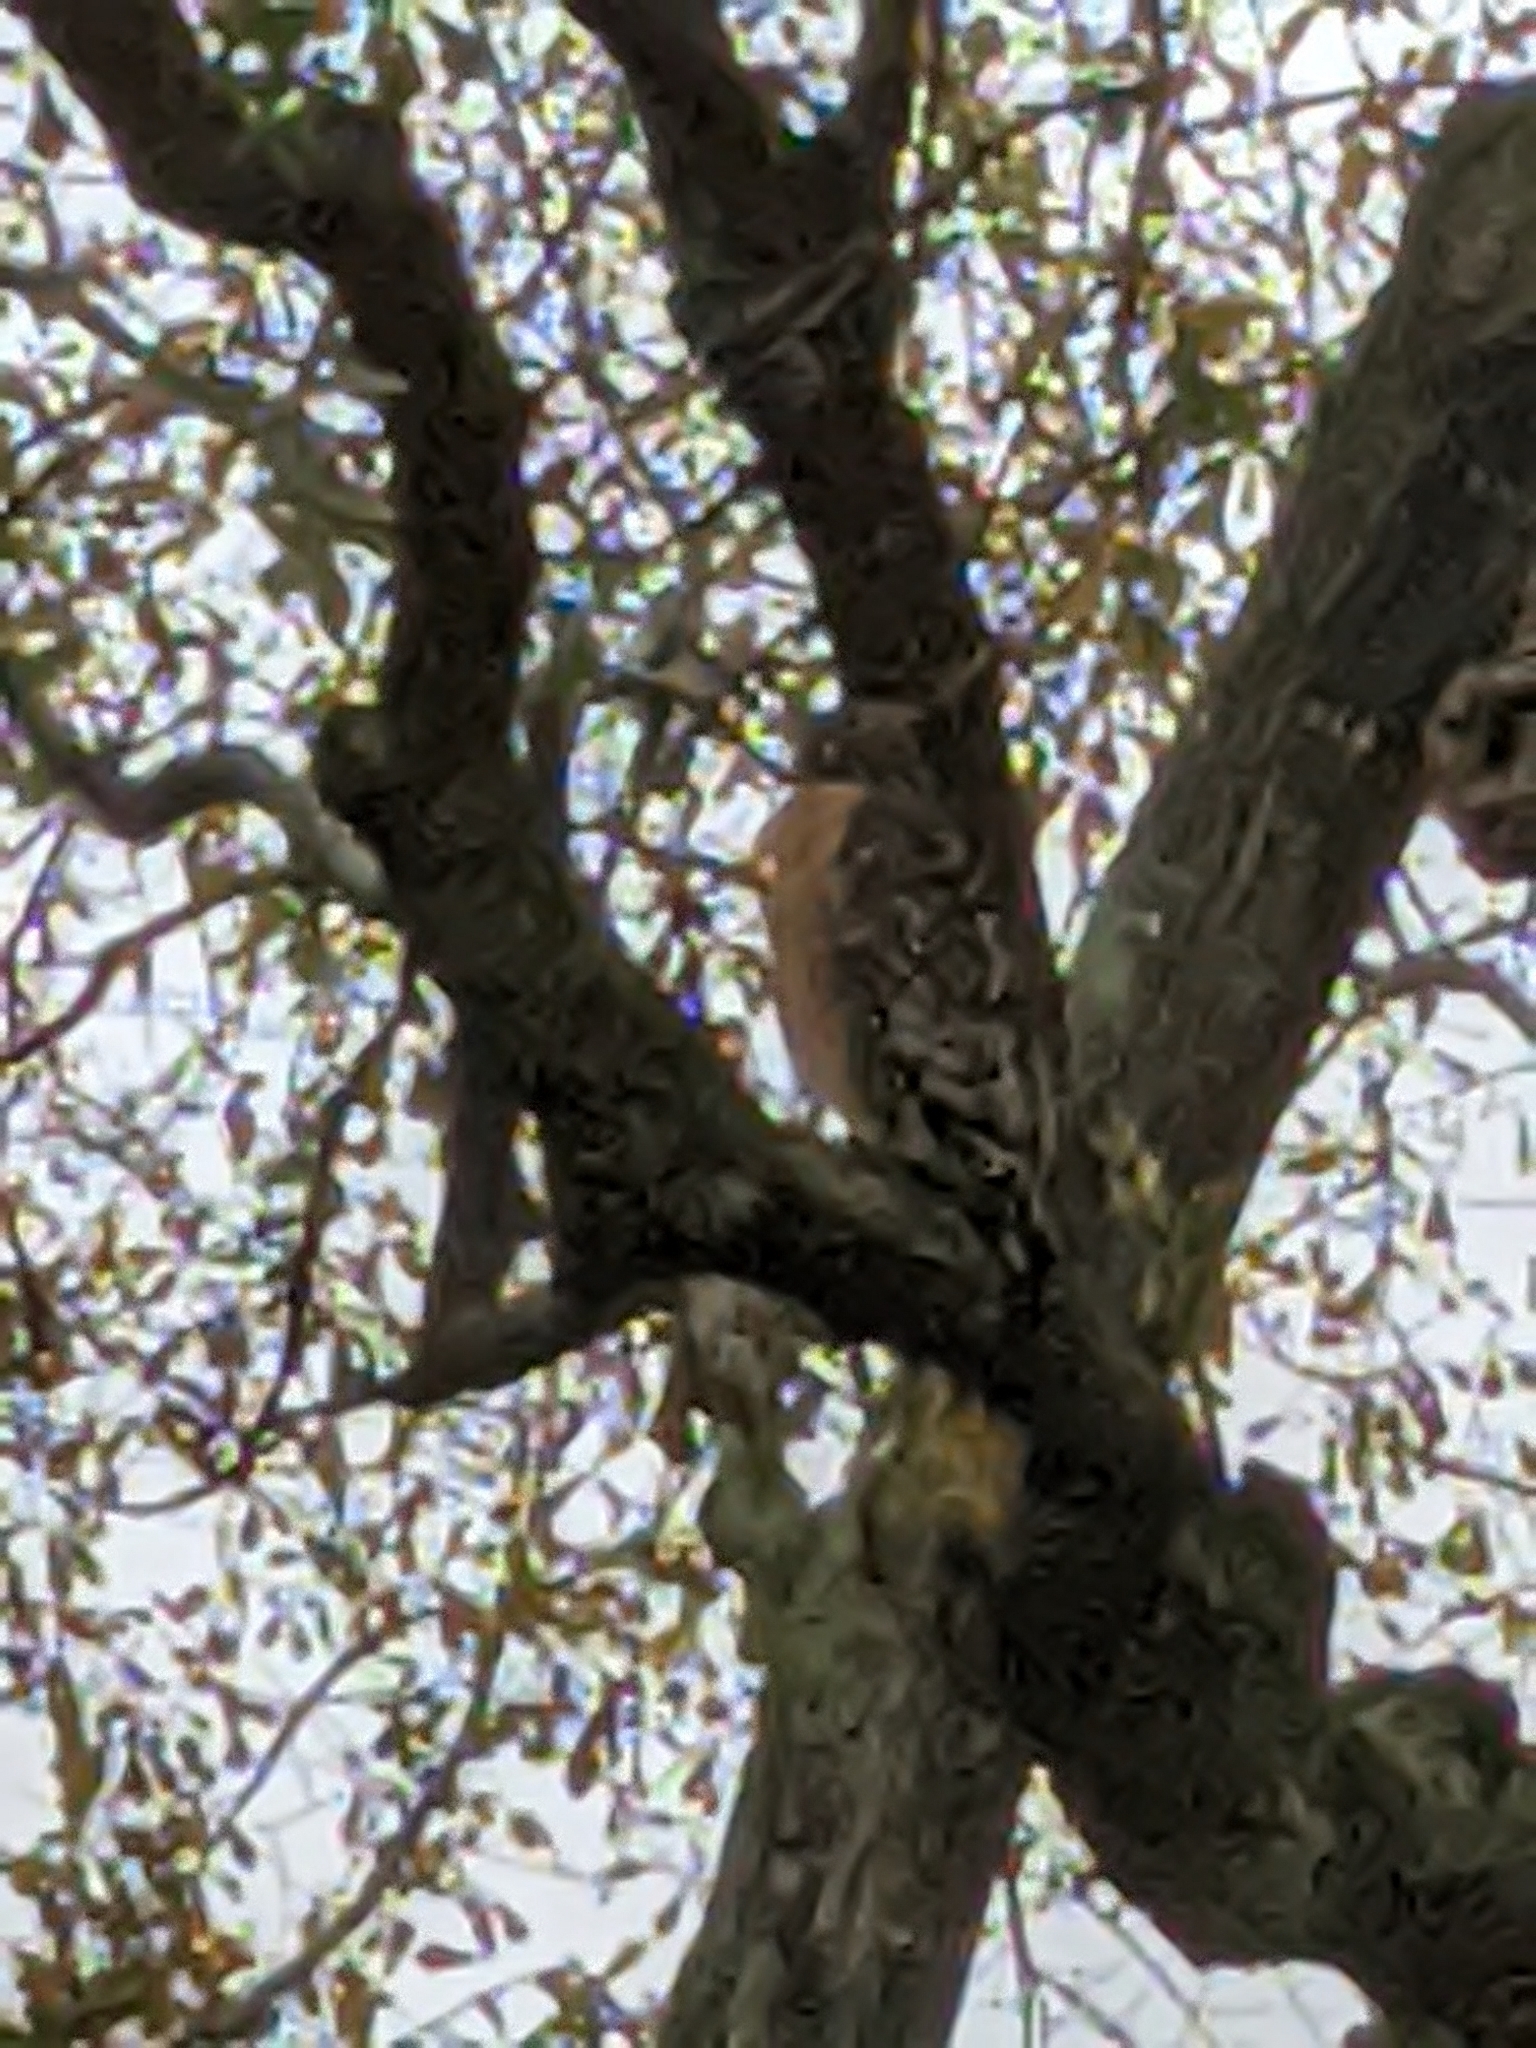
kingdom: Animalia
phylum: Chordata
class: Aves
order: Accipitriformes
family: Accipitridae
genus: Buteo
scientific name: Buteo lineatus
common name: Red-shouldered hawk
